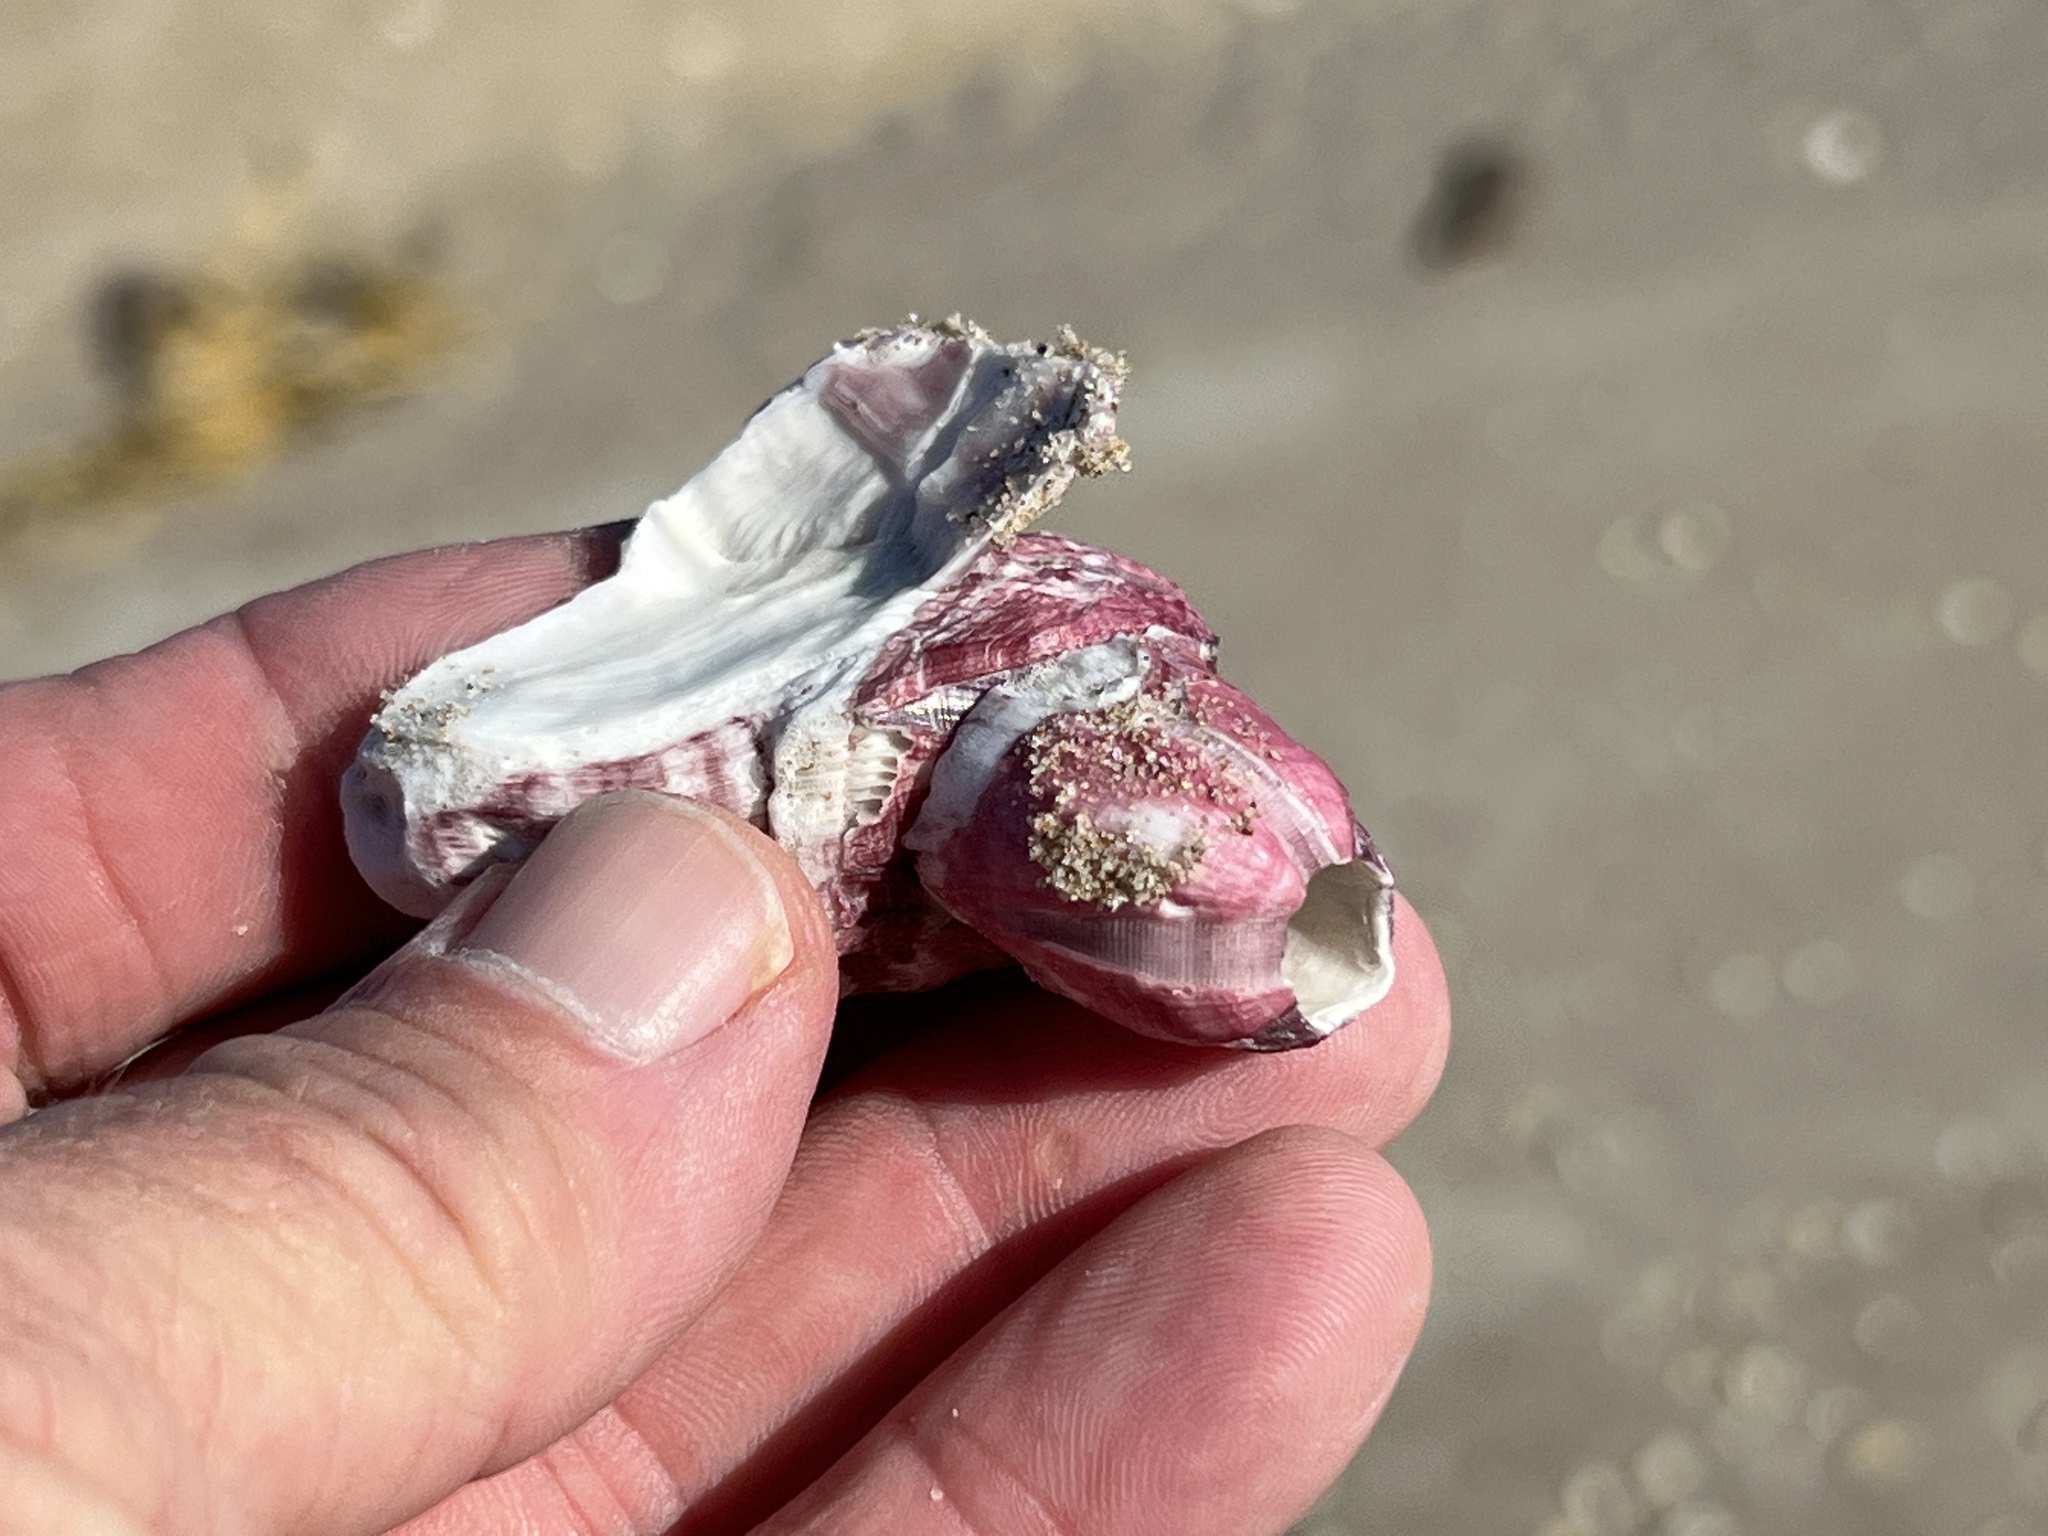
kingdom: Animalia
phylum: Arthropoda
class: Maxillopoda
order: Sessilia
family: Balanidae
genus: Megabalanus
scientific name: Megabalanus tintinnabulum
